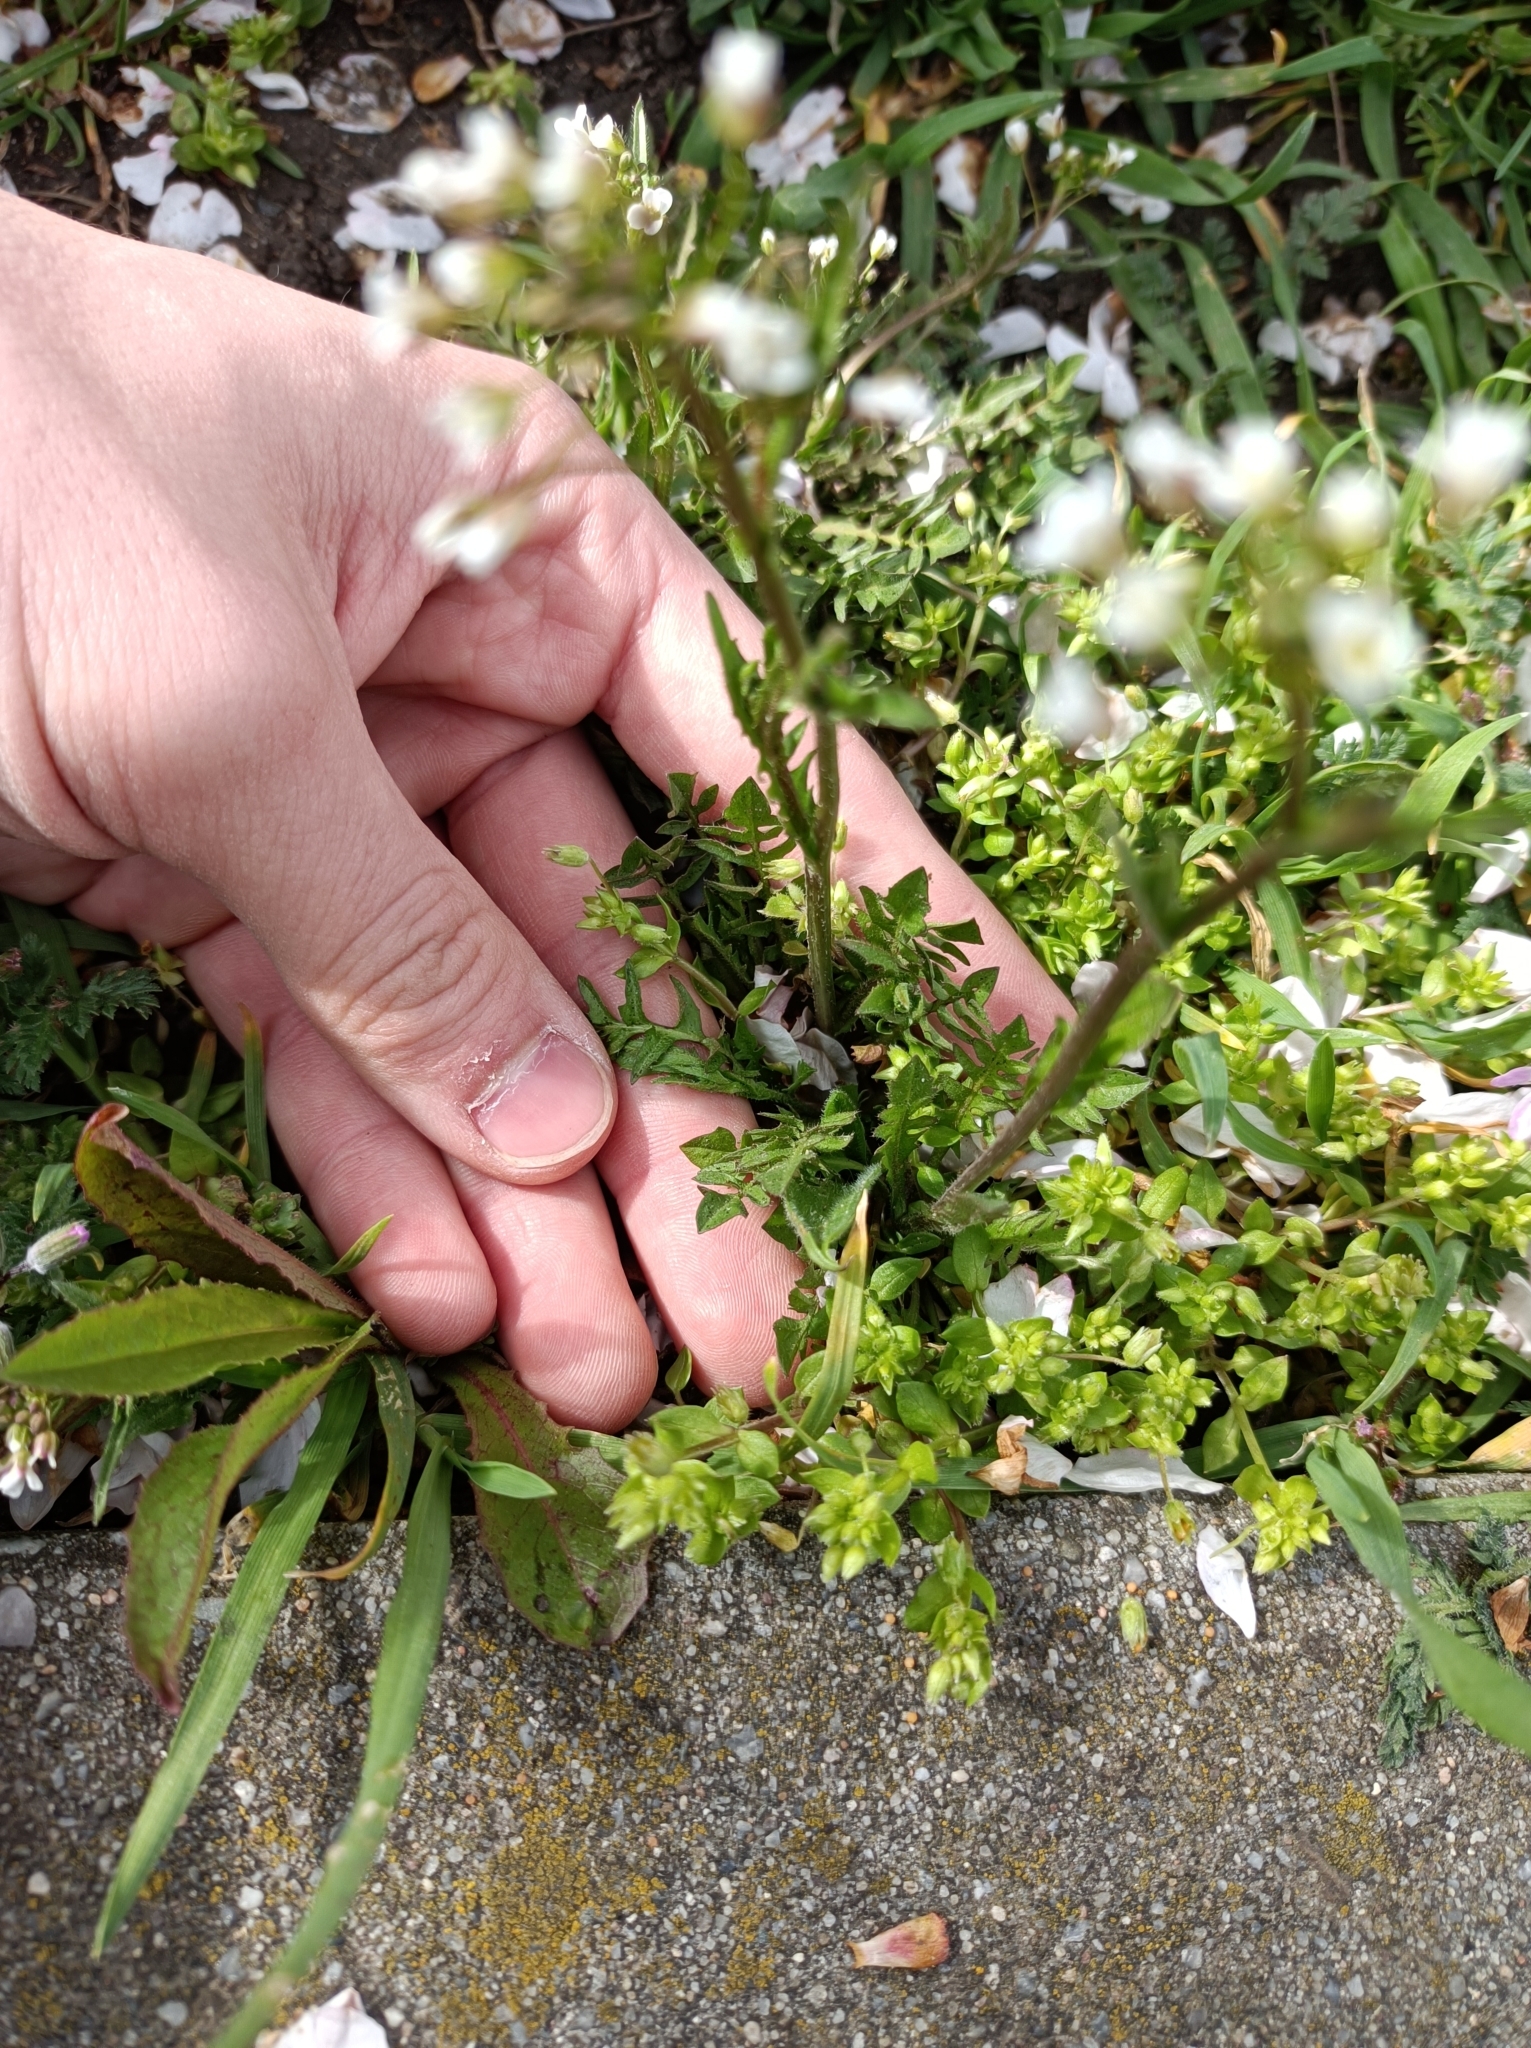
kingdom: Plantae
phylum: Tracheophyta
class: Magnoliopsida
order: Brassicales
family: Brassicaceae
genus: Capsella
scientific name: Capsella bursa-pastoris
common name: Shepherd's purse
